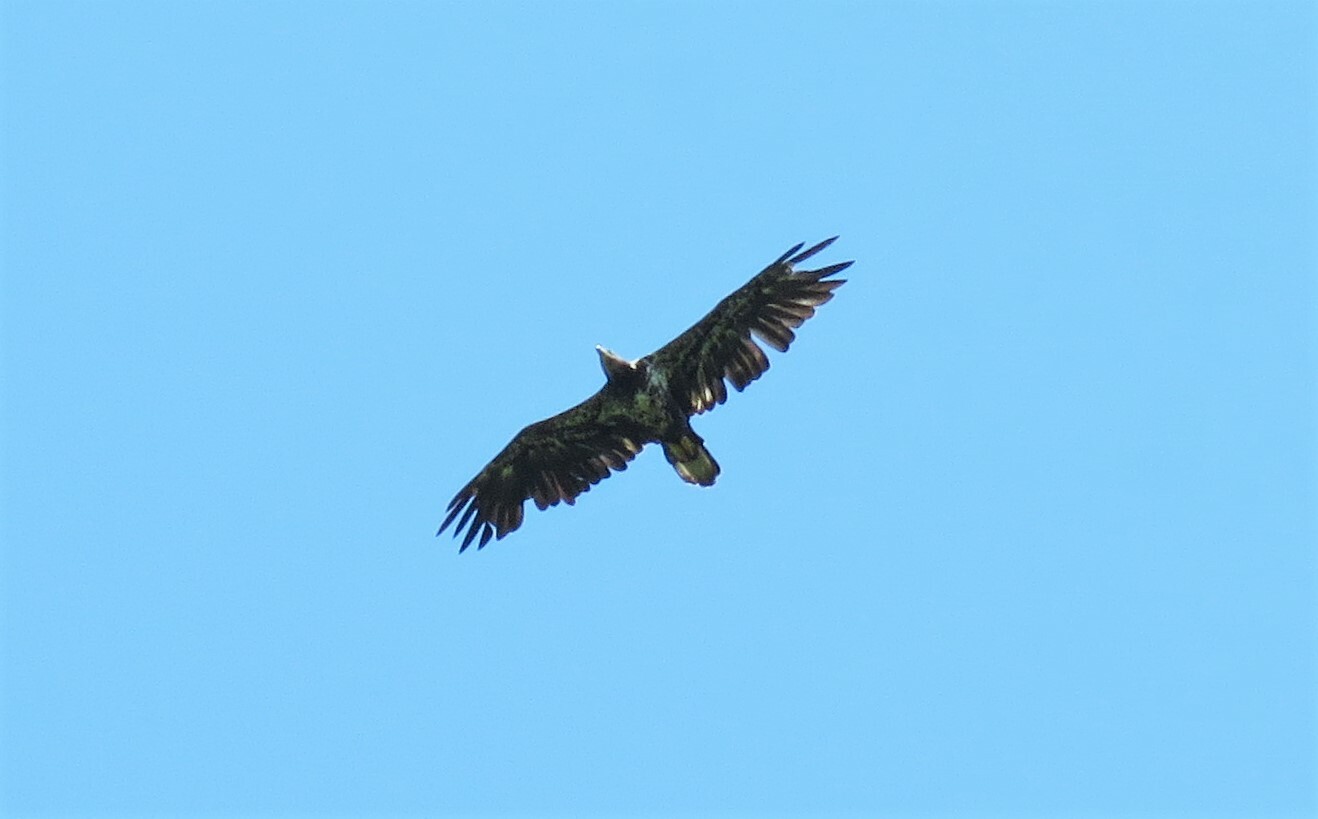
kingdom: Animalia
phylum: Chordata
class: Aves
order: Accipitriformes
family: Accipitridae
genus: Haliaeetus
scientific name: Haliaeetus leucocephalus
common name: Bald eagle
